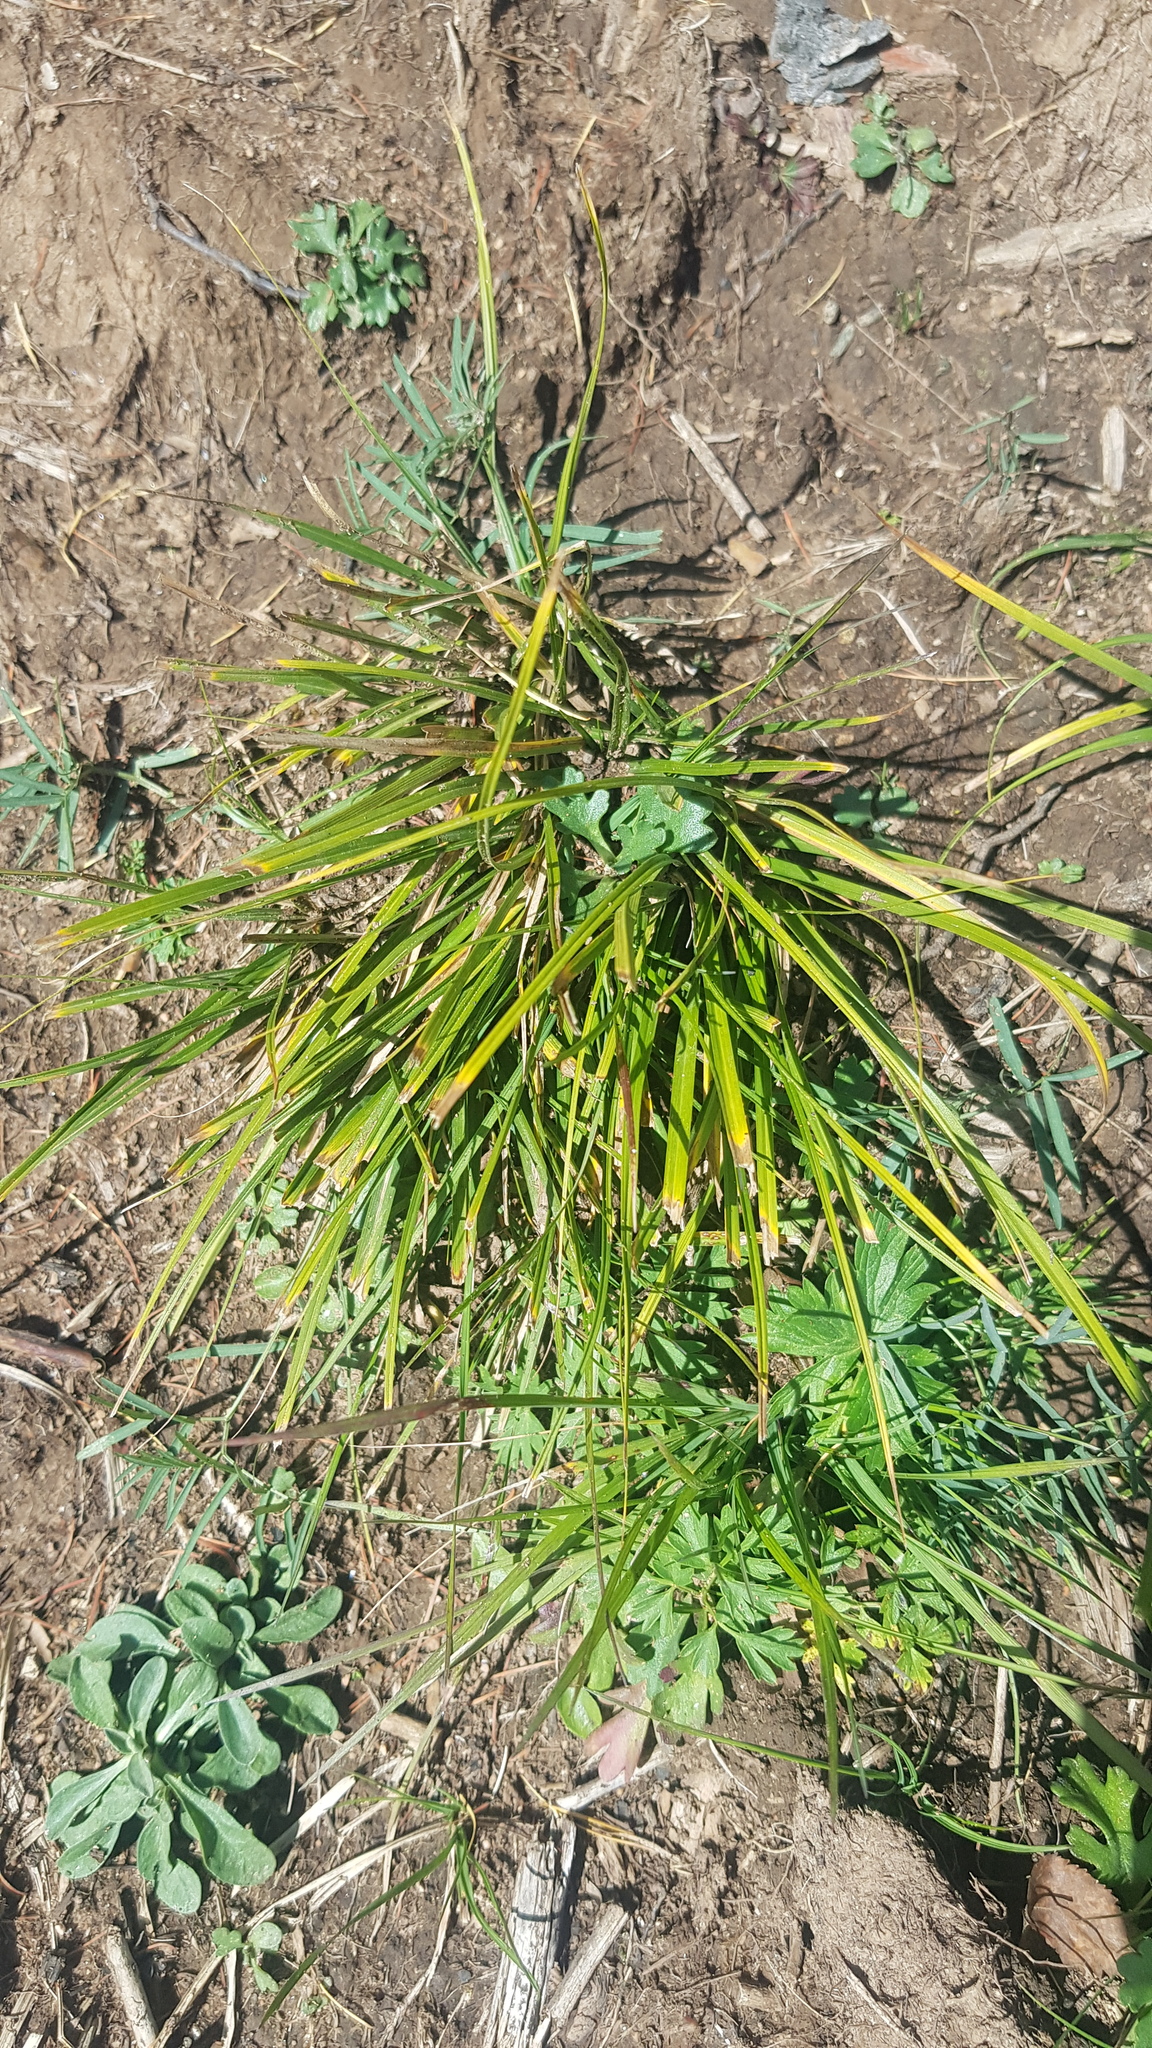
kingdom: Plantae
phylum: Tracheophyta
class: Liliopsida
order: Poales
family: Cyperaceae
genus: Carex
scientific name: Carex pediformis
